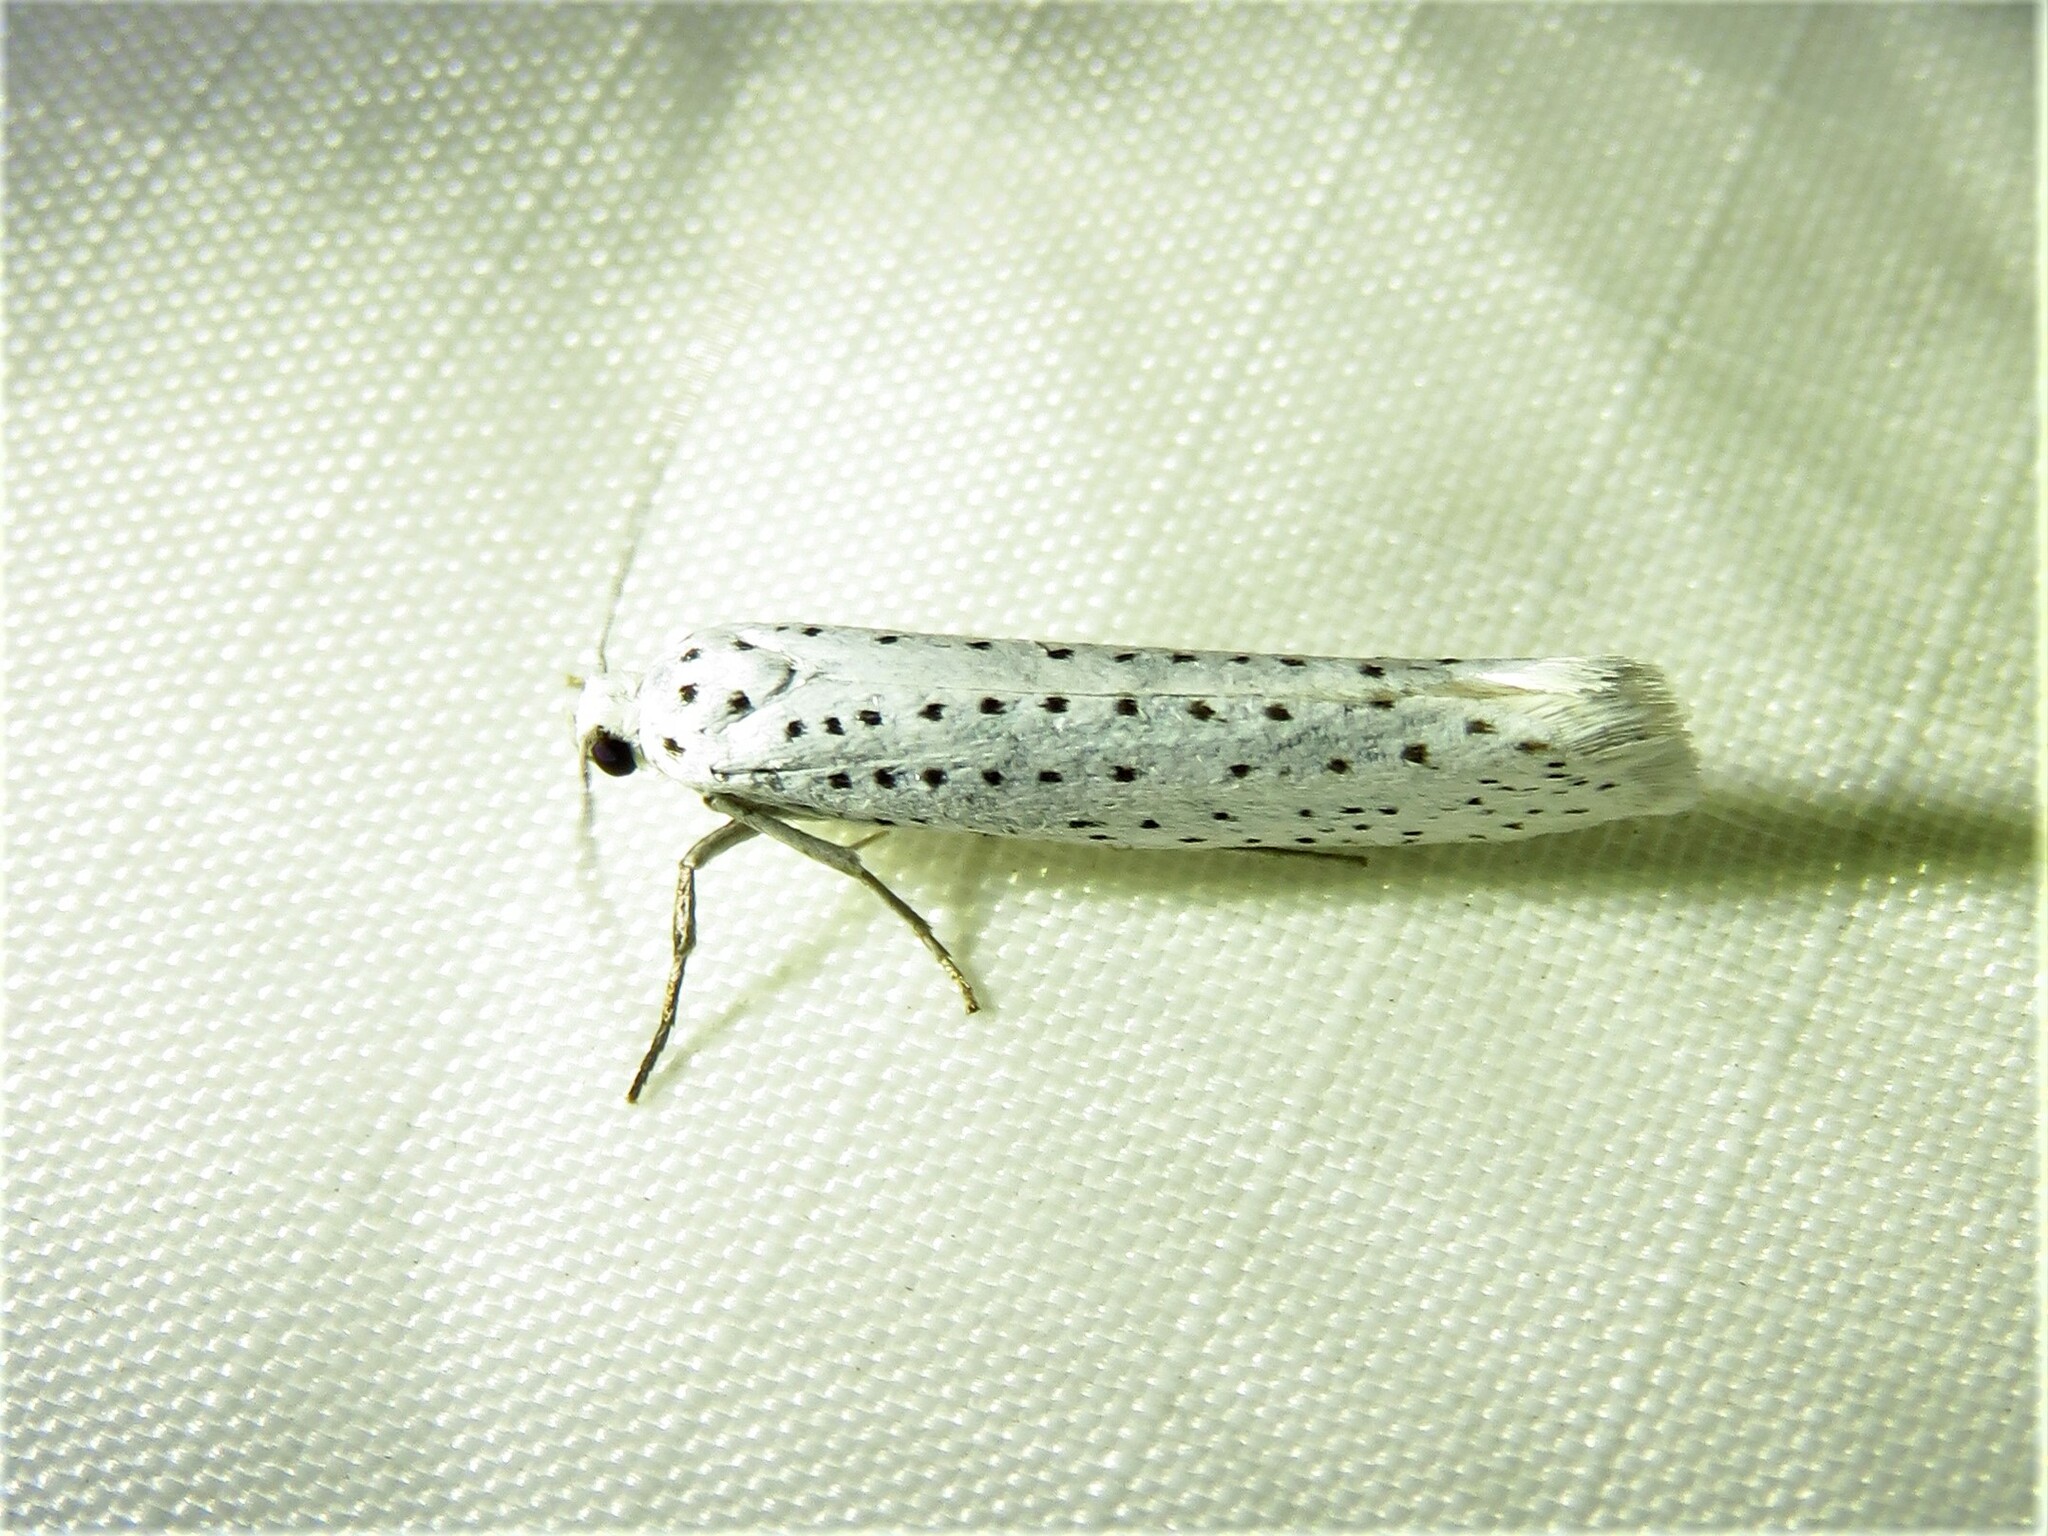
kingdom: Animalia
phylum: Arthropoda
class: Insecta
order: Lepidoptera
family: Yponomeutidae
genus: Yponomeuta
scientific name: Yponomeuta evonymella
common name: Bird-cherry ermine
